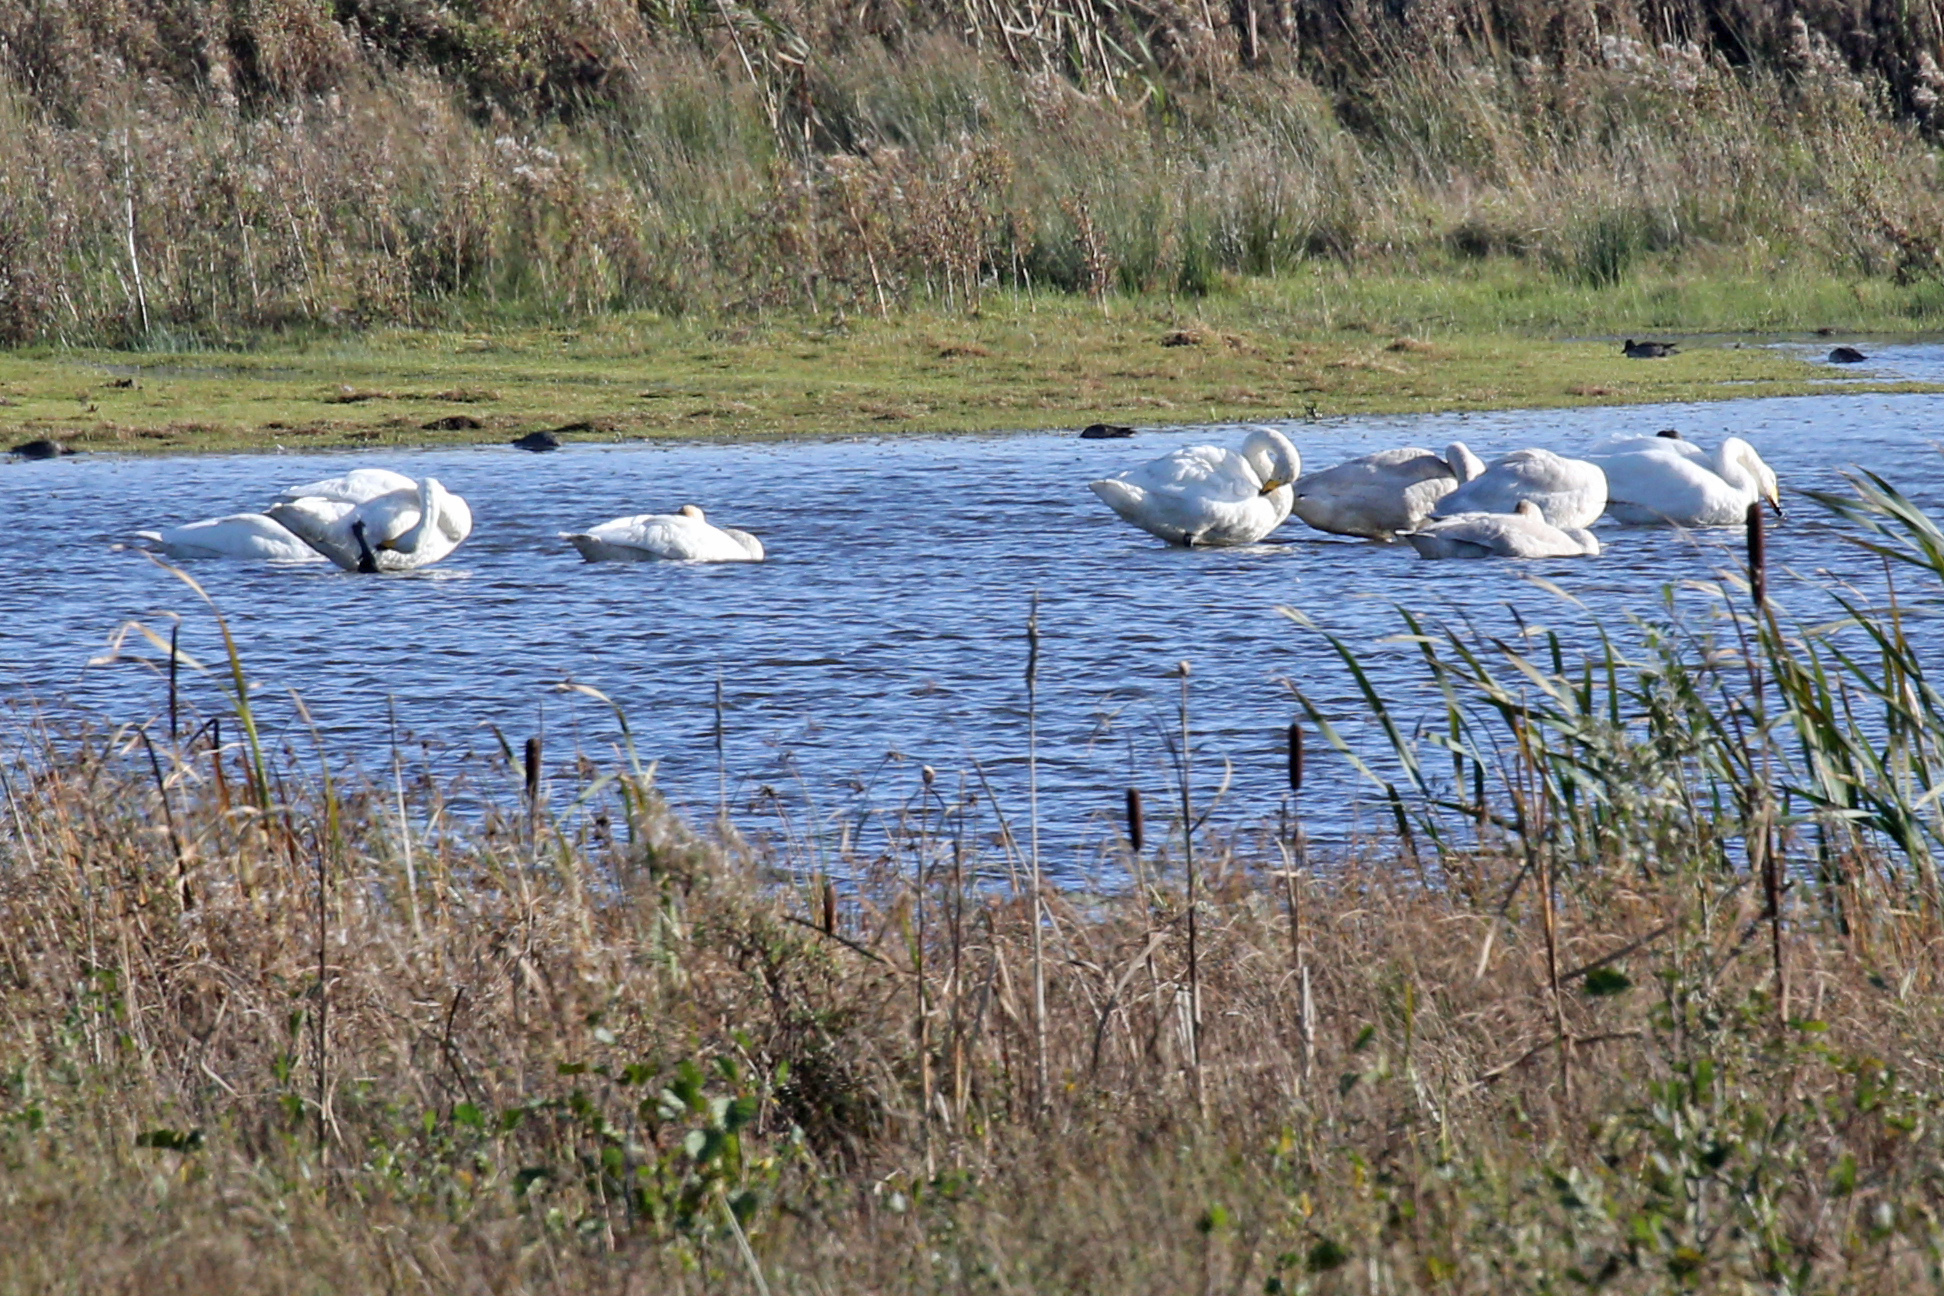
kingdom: Animalia
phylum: Chordata
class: Aves
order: Anseriformes
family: Anatidae
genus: Cygnus
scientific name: Cygnus cygnus
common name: Whooper swan
